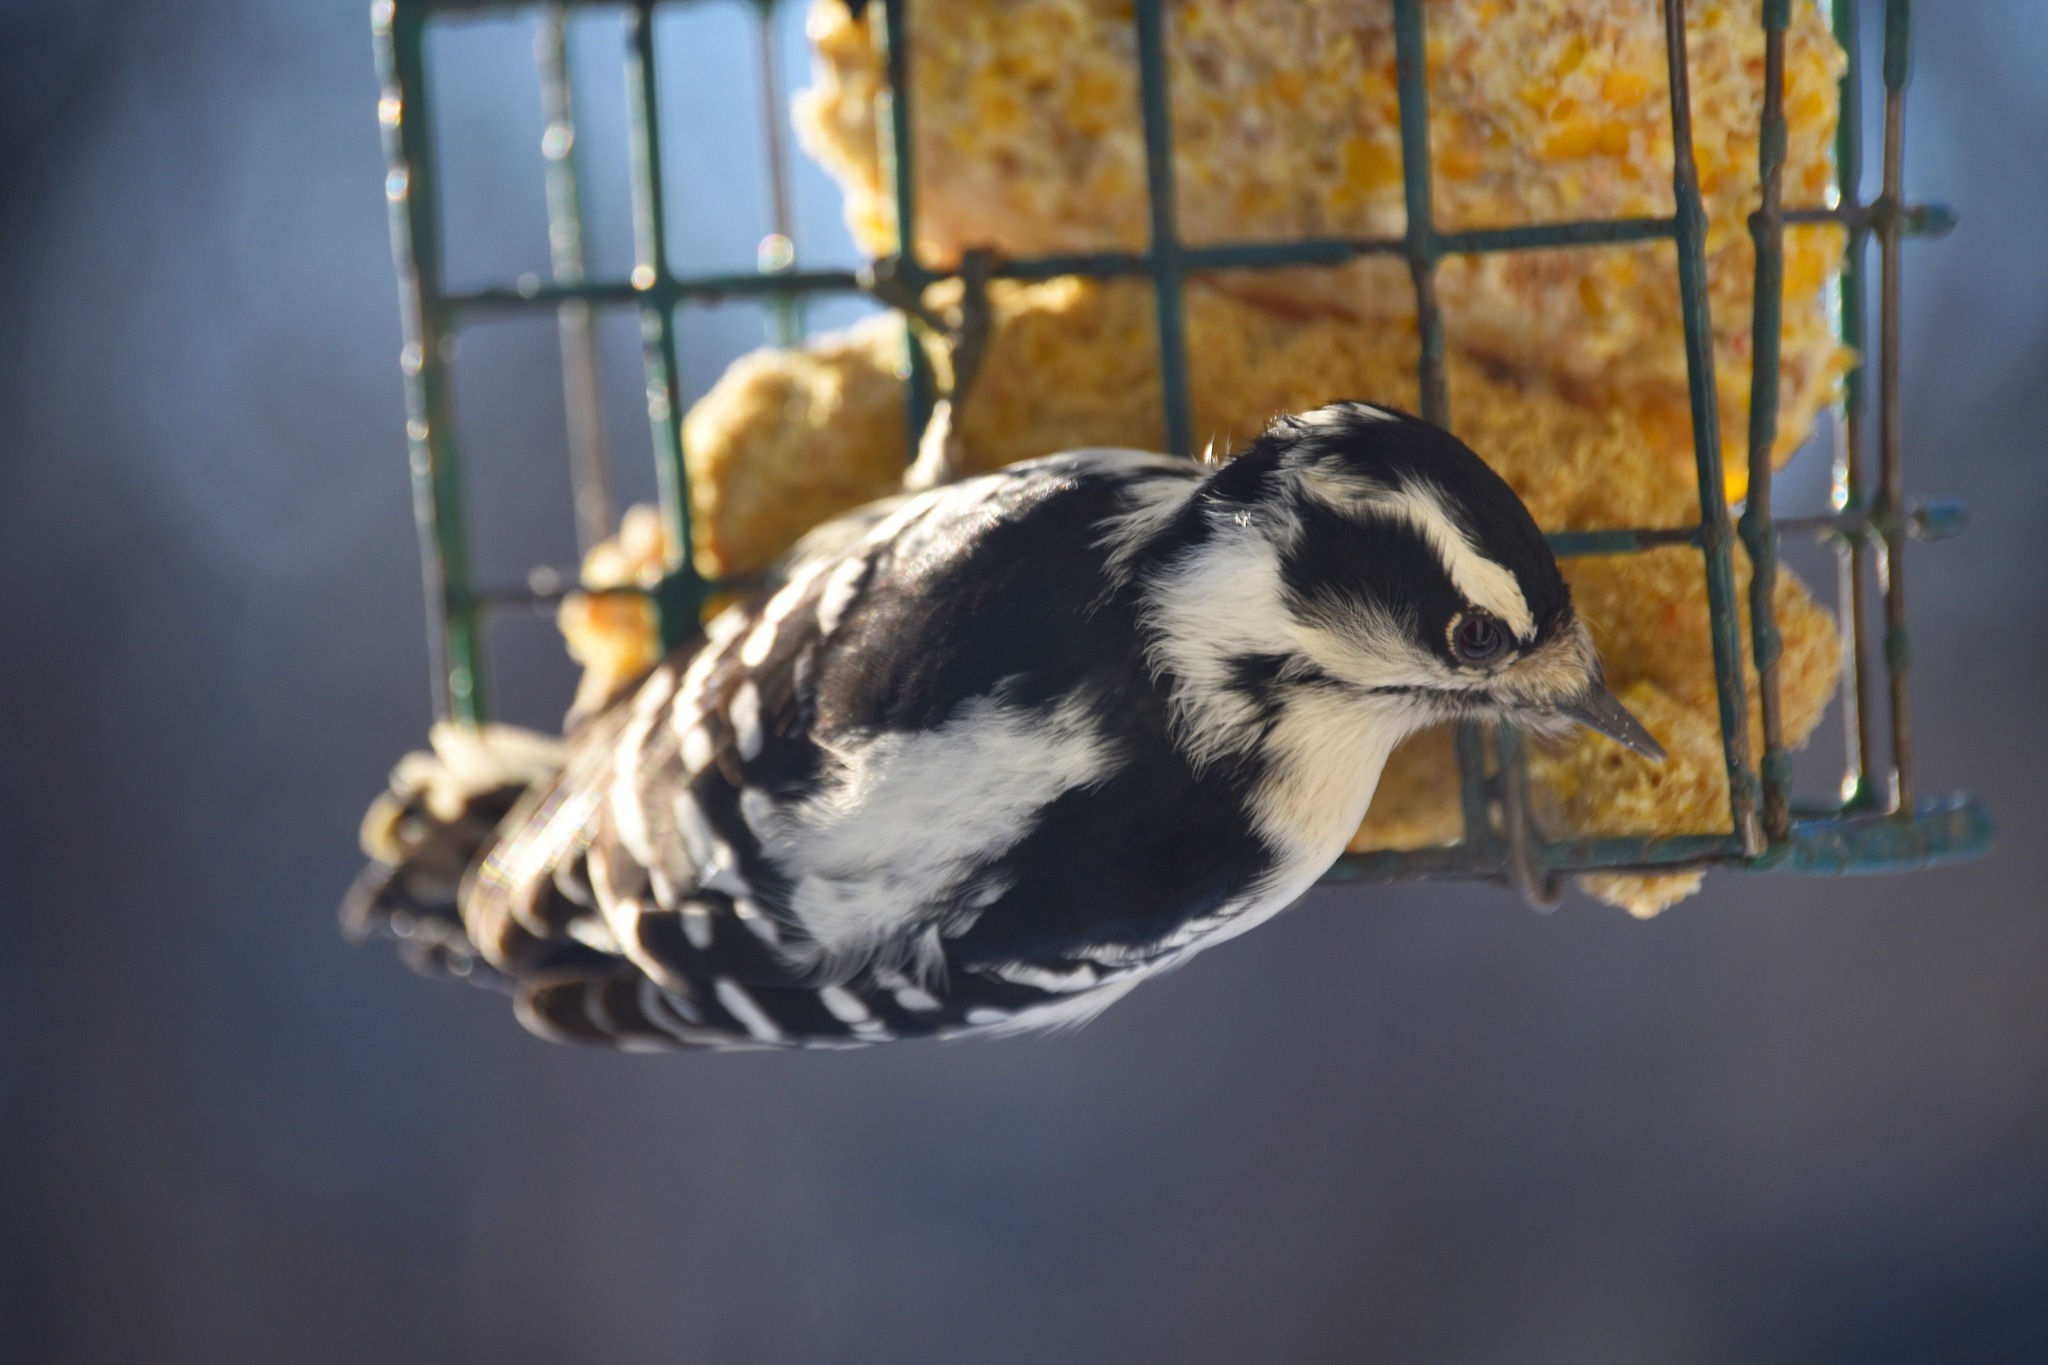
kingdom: Animalia
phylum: Chordata
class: Aves
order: Piciformes
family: Picidae
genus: Dryobates
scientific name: Dryobates pubescens
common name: Downy woodpecker
